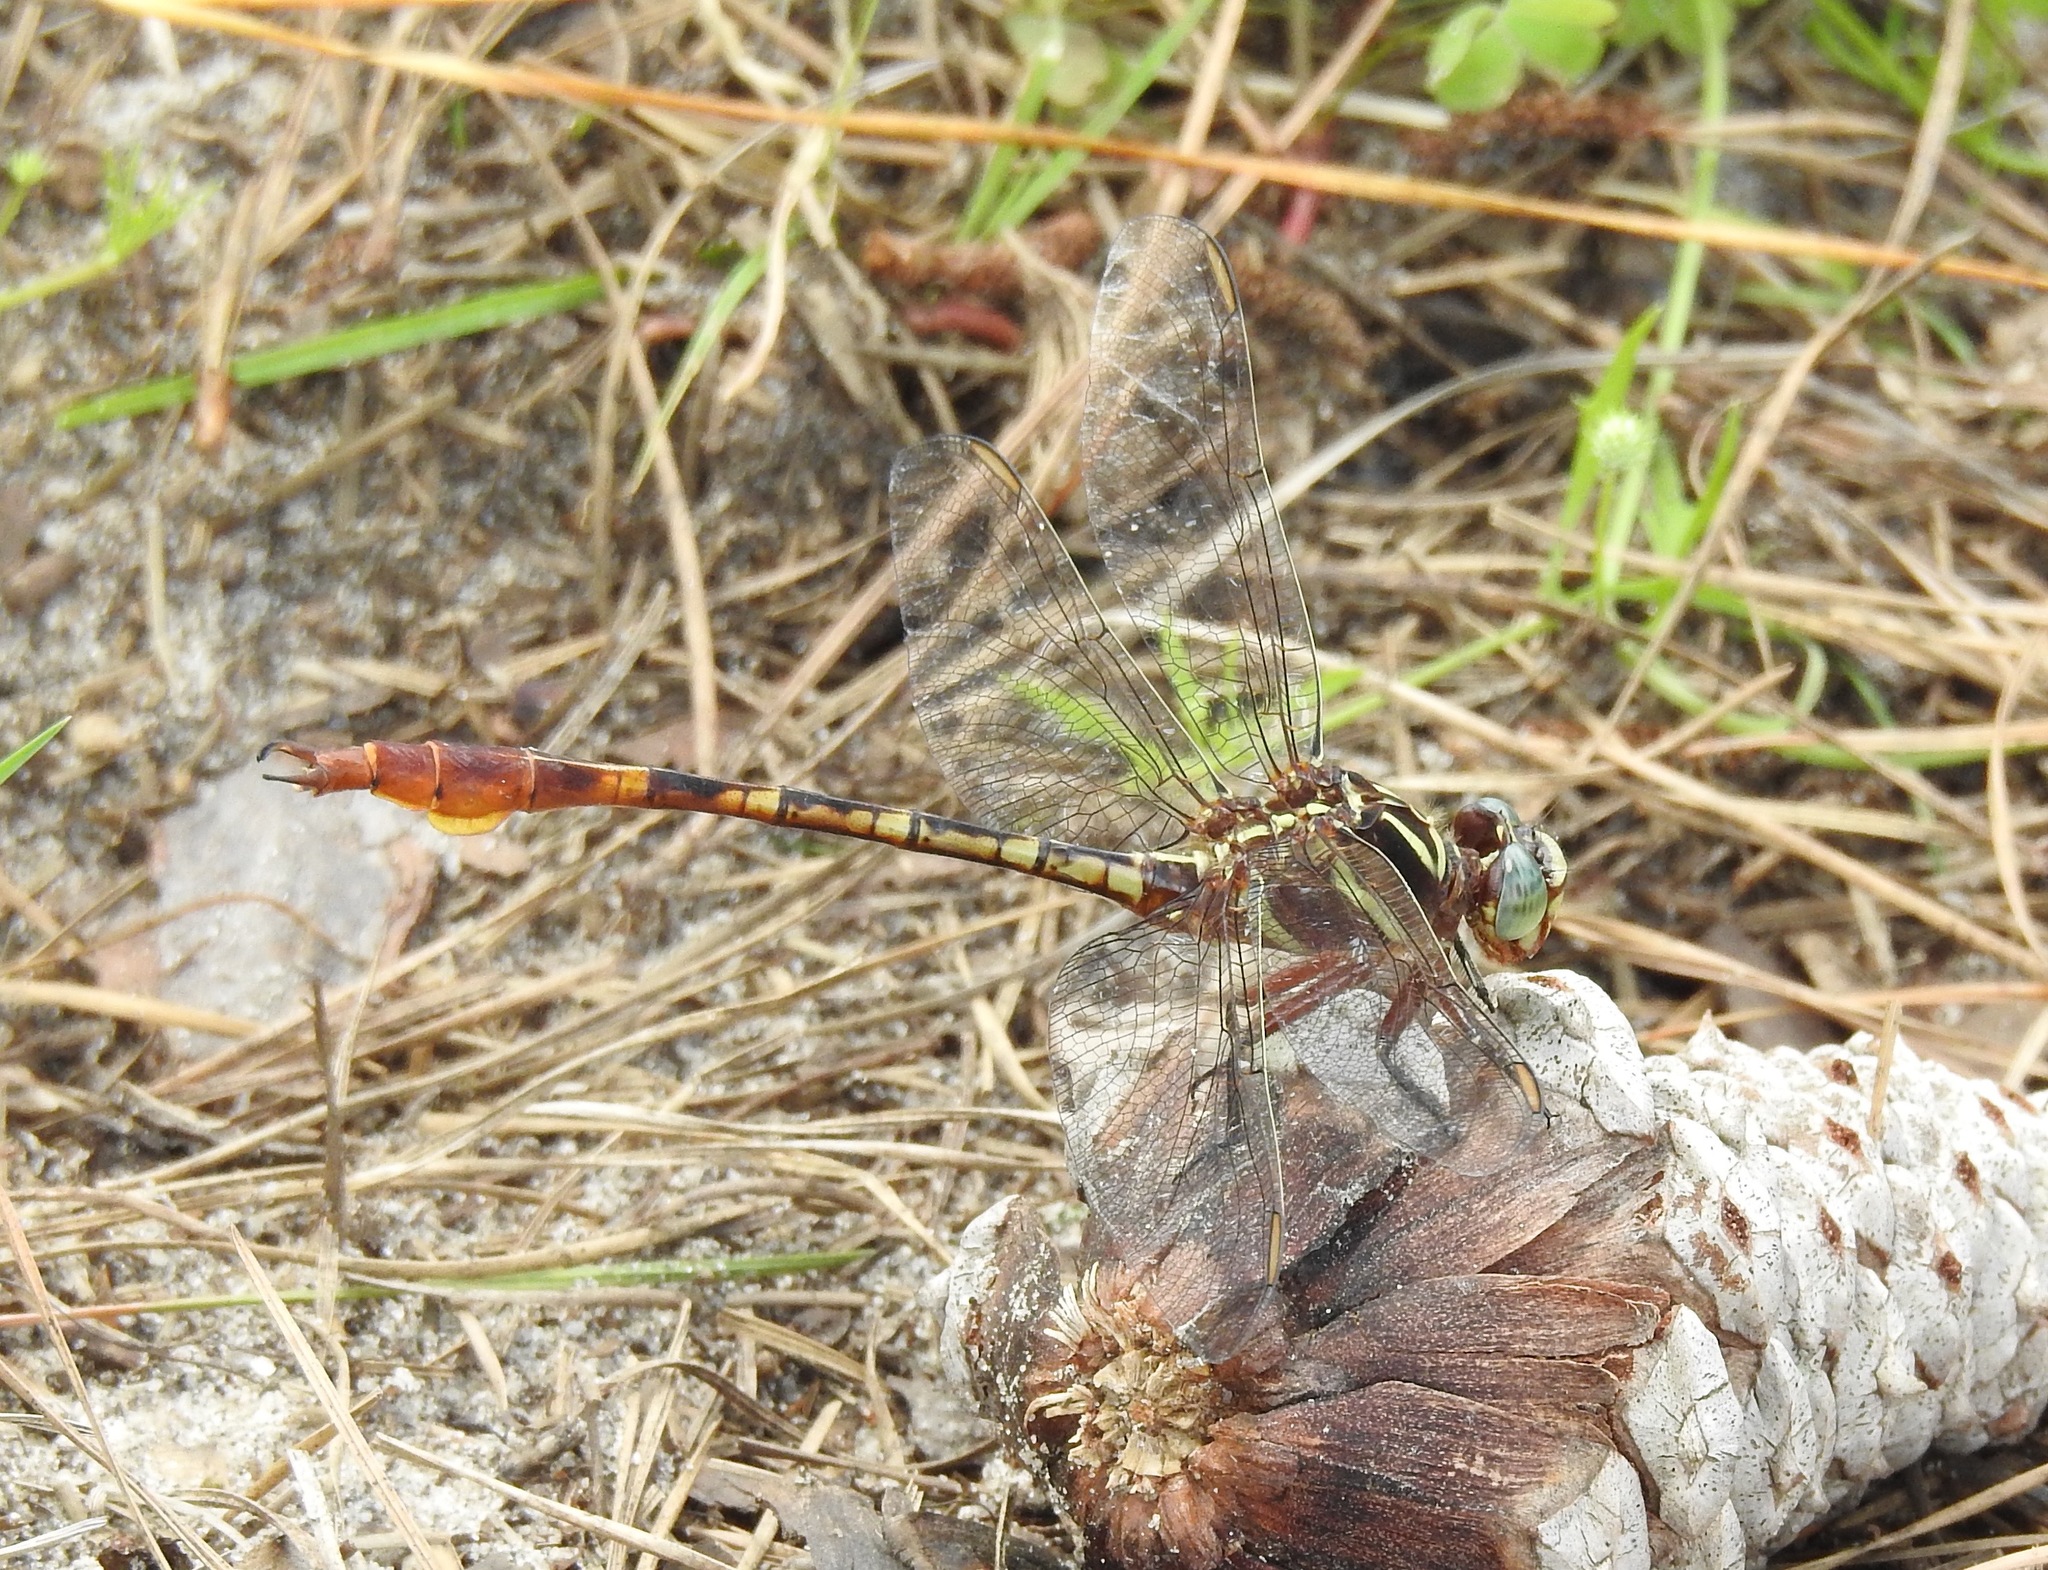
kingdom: Animalia
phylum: Arthropoda
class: Insecta
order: Odonata
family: Gomphidae
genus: Aphylla
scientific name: Aphylla williamsoni
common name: Two-striped forceptail
